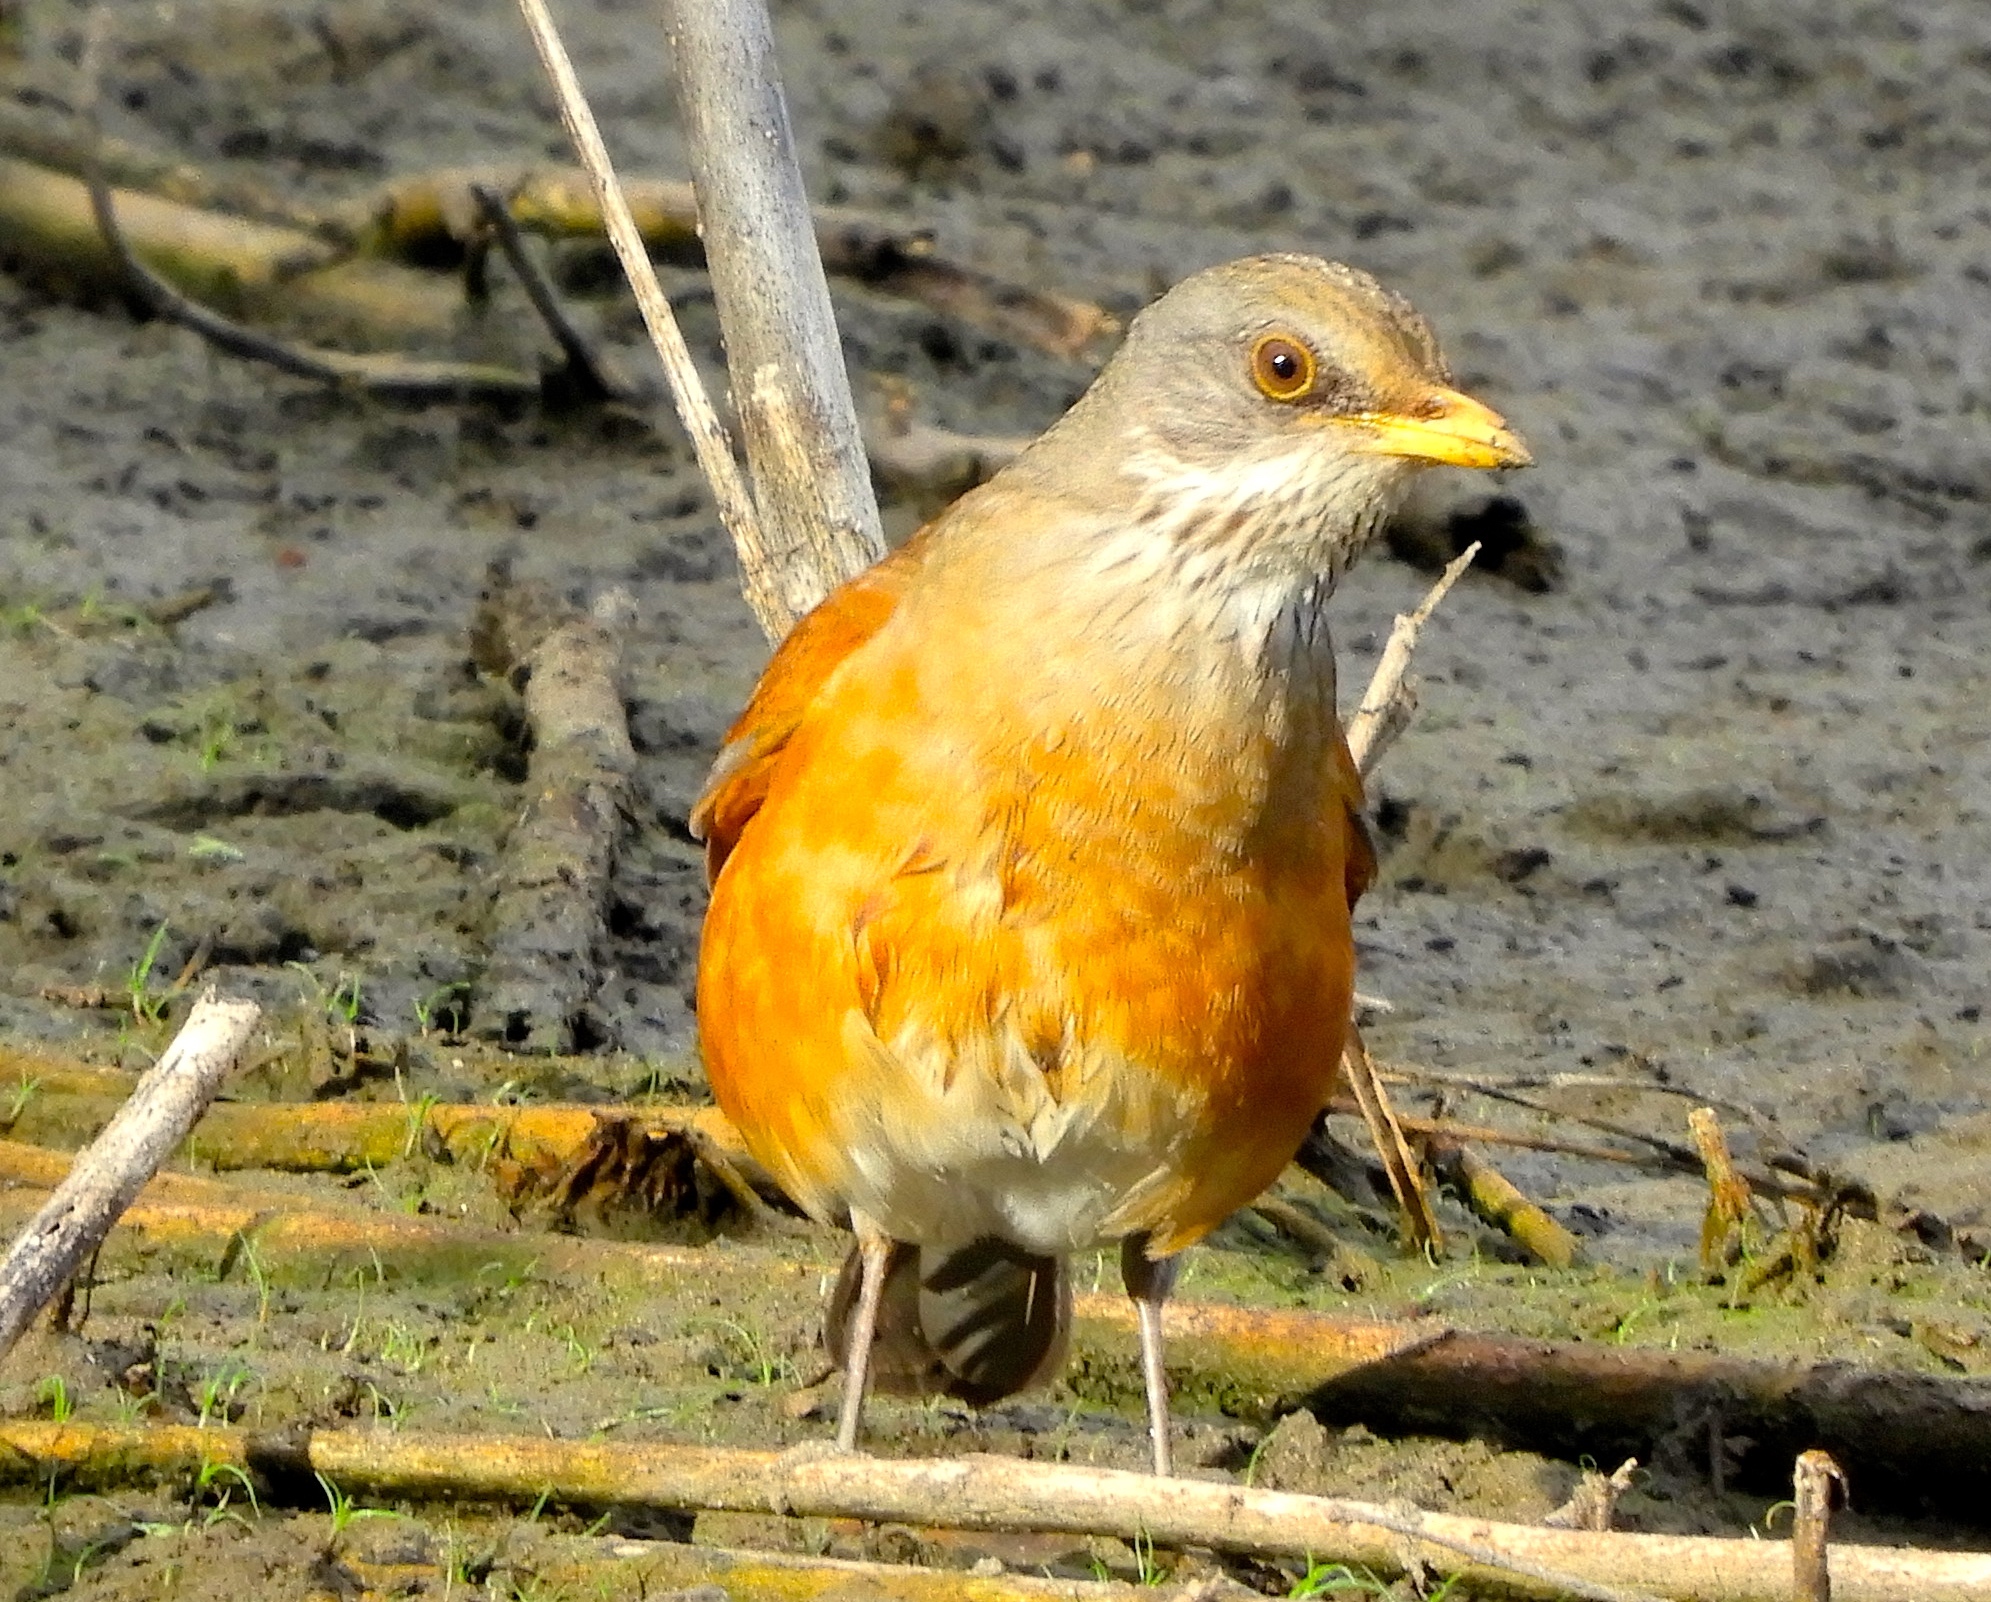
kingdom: Animalia
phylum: Chordata
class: Aves
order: Passeriformes
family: Turdidae
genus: Turdus
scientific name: Turdus rufopalliatus
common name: Rufous-backed robin
